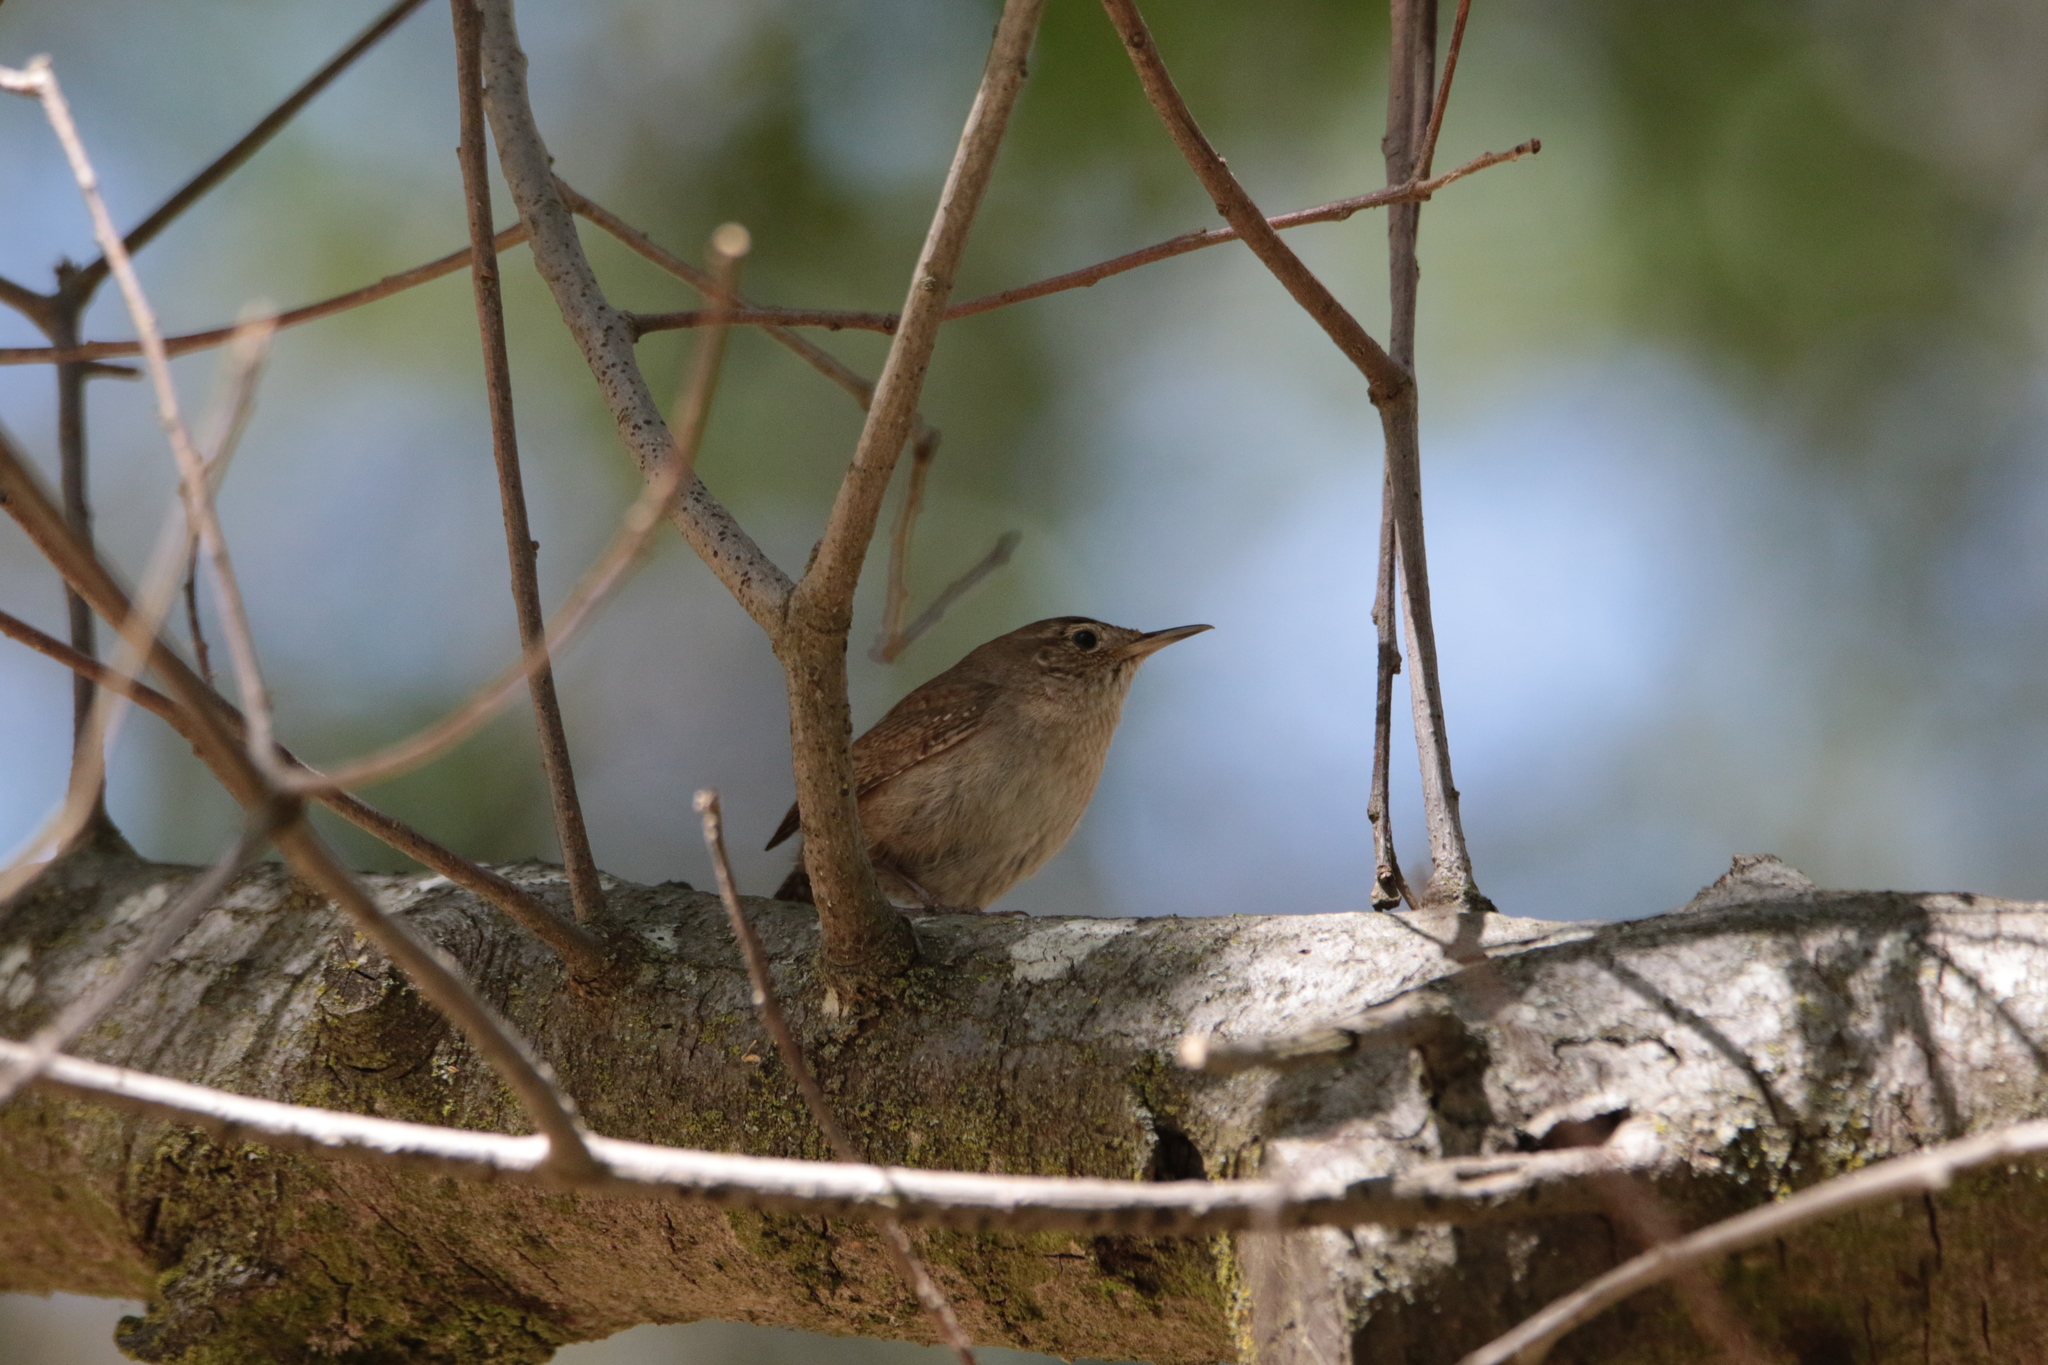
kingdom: Animalia
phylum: Chordata
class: Aves
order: Passeriformes
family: Troglodytidae
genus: Troglodytes
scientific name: Troglodytes aedon
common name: House wren
